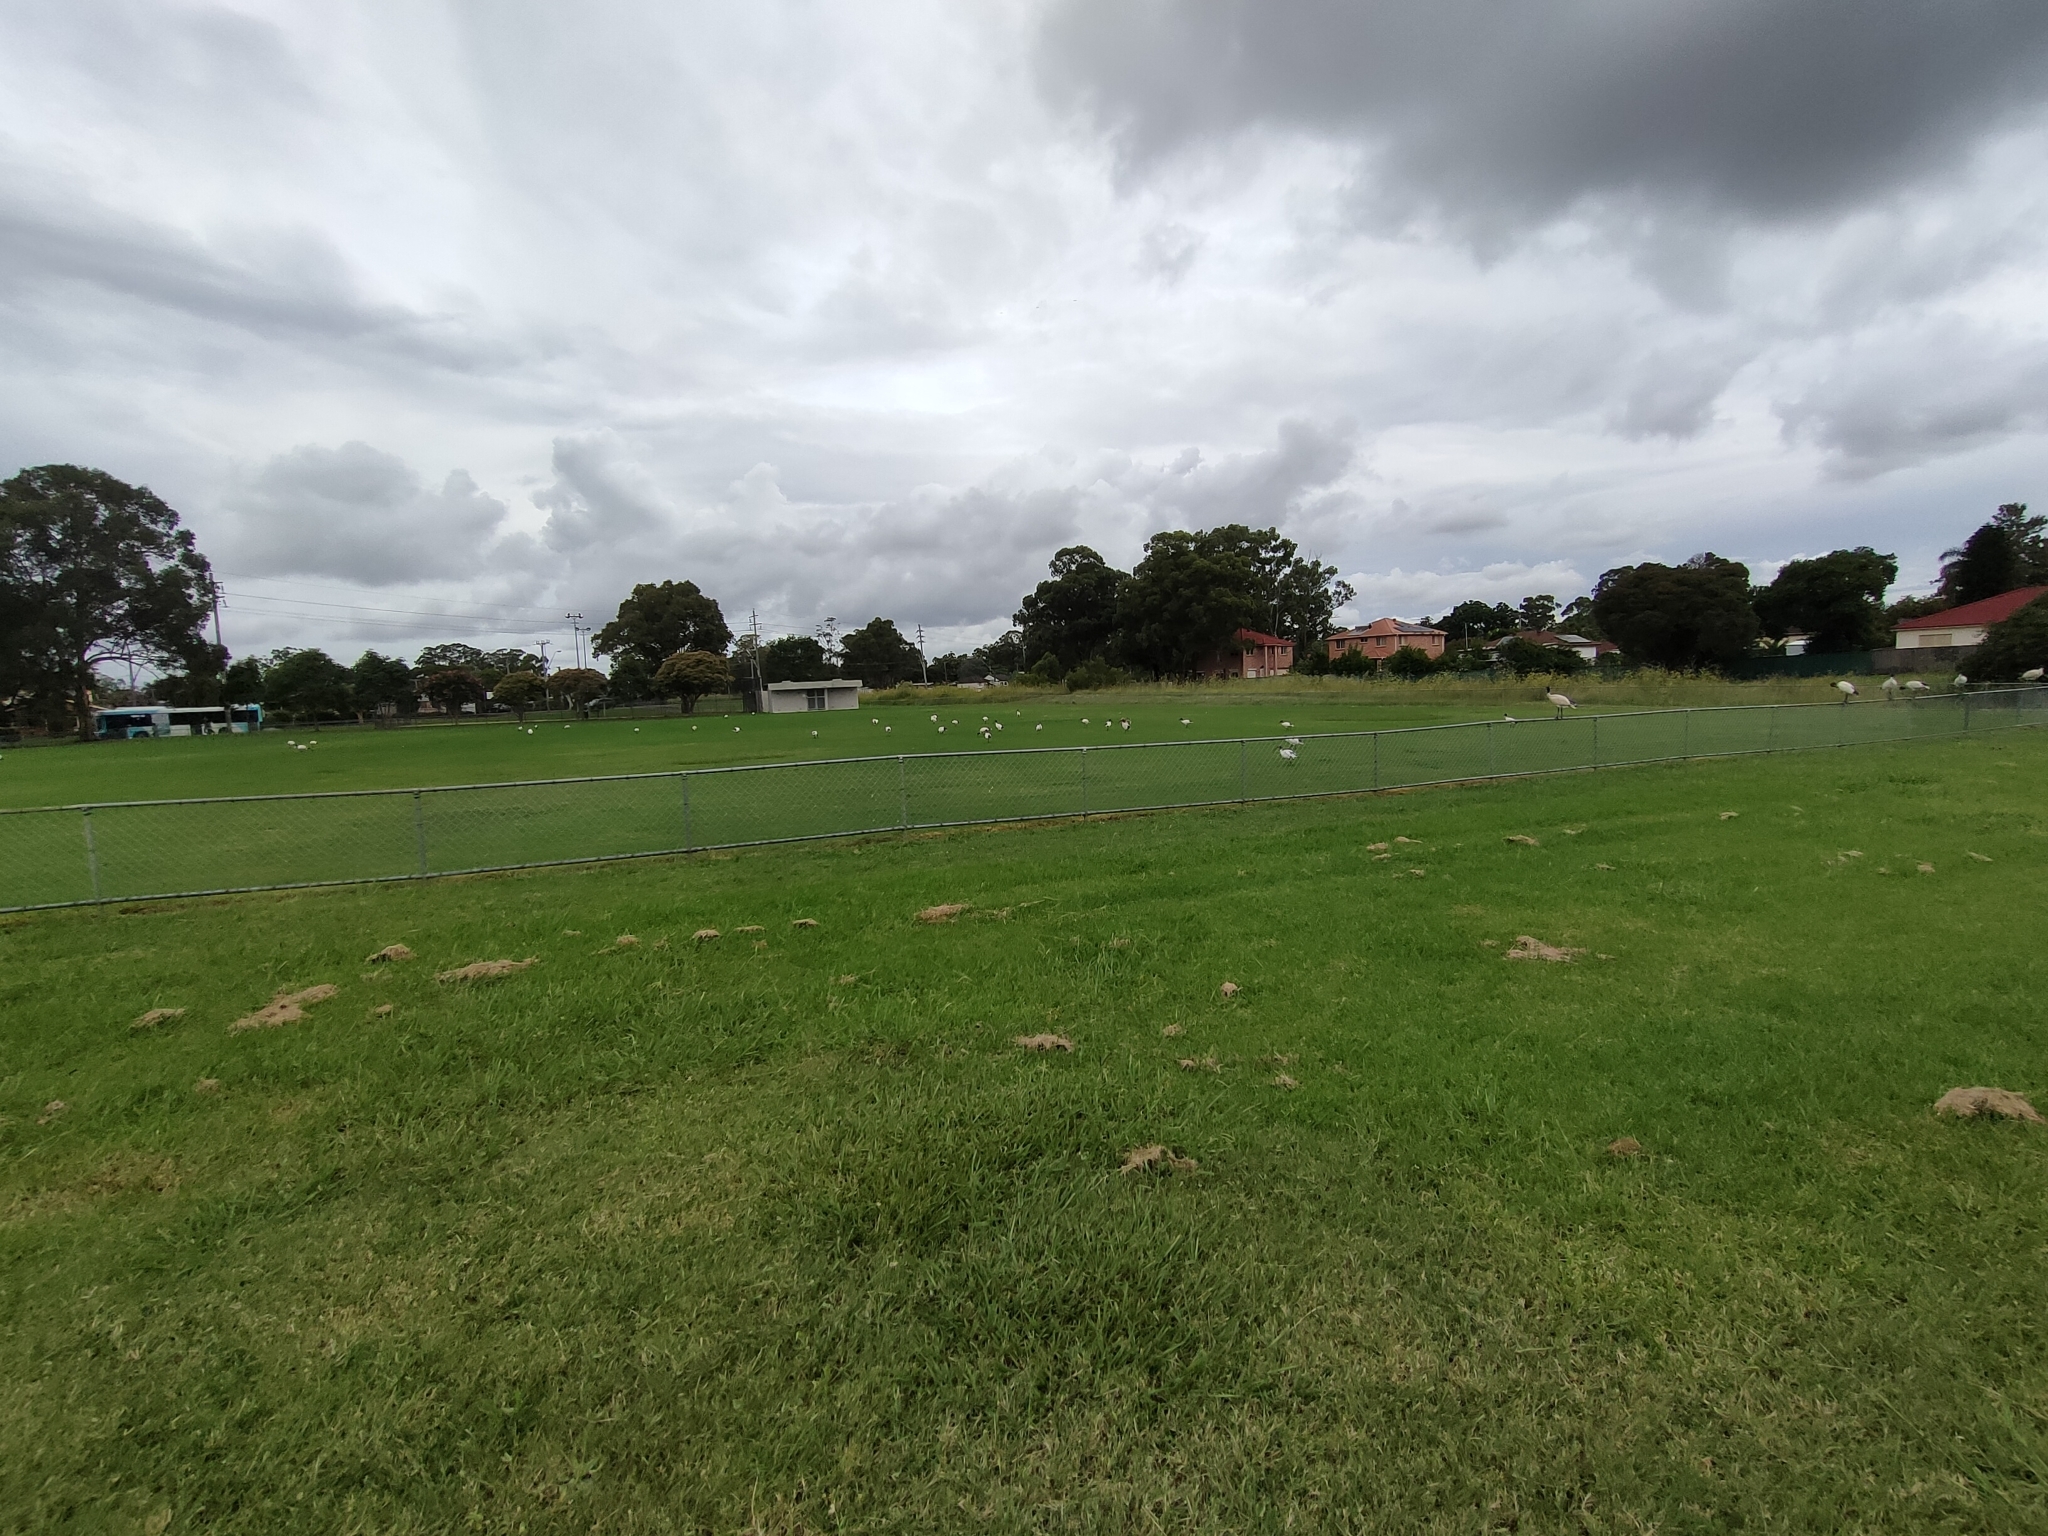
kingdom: Animalia
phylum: Chordata
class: Aves
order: Pelecaniformes
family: Threskiornithidae
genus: Threskiornis
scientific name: Threskiornis molucca
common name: Australian white ibis
